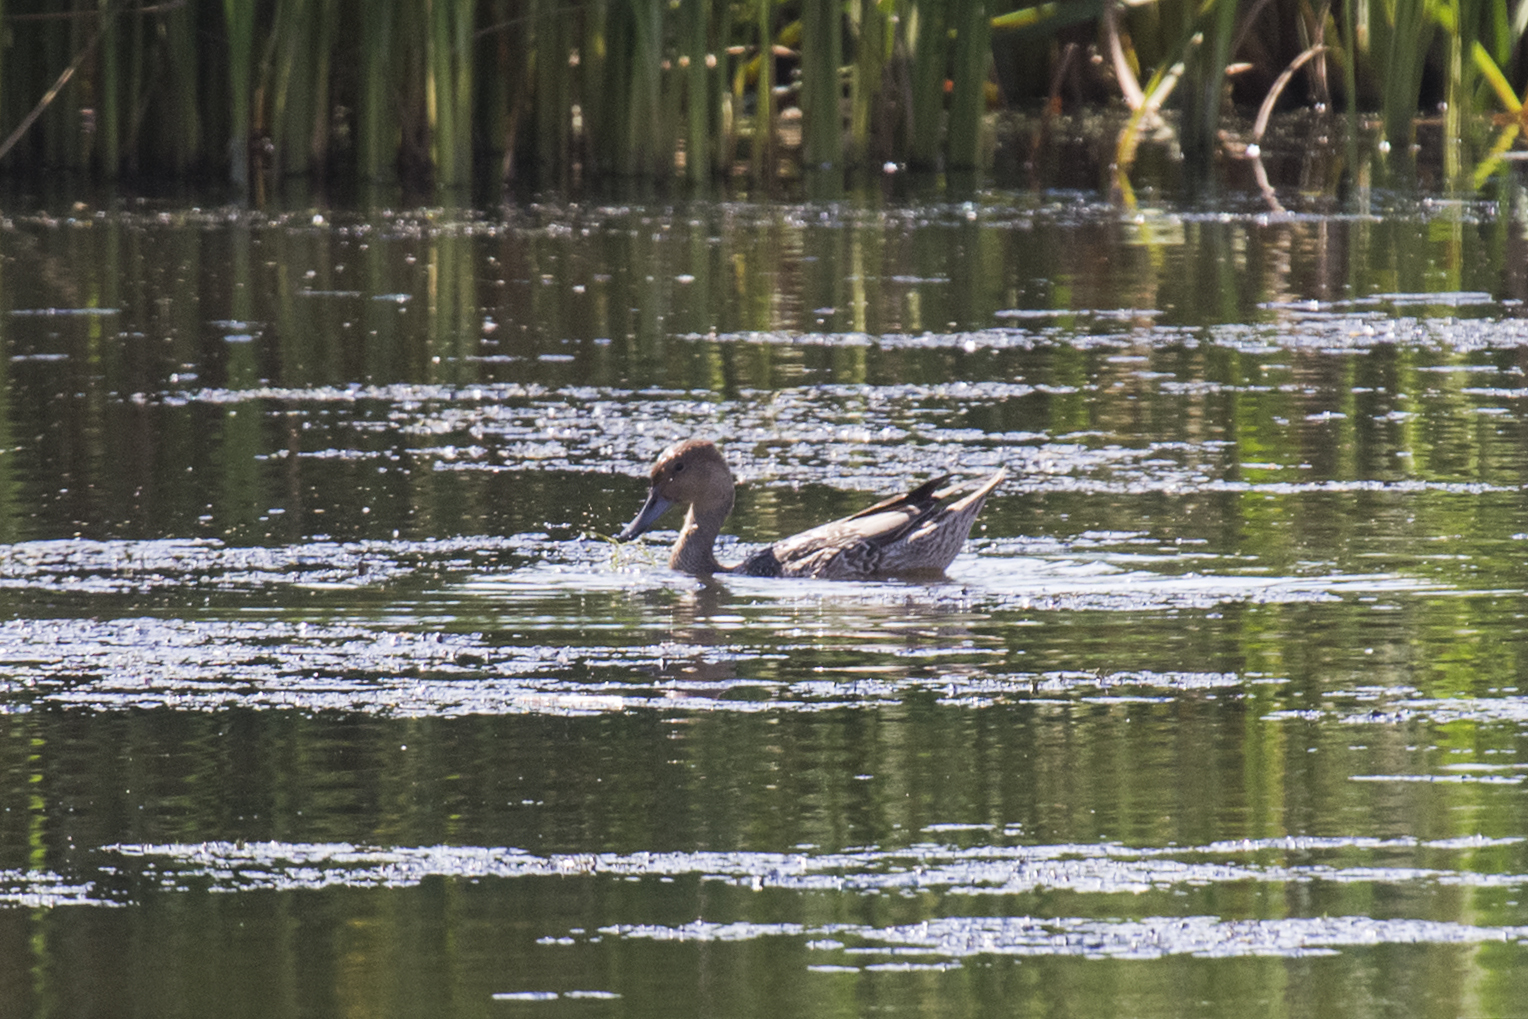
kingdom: Animalia
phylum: Chordata
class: Aves
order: Anseriformes
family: Anatidae
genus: Anas
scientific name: Anas acuta
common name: Northern pintail
